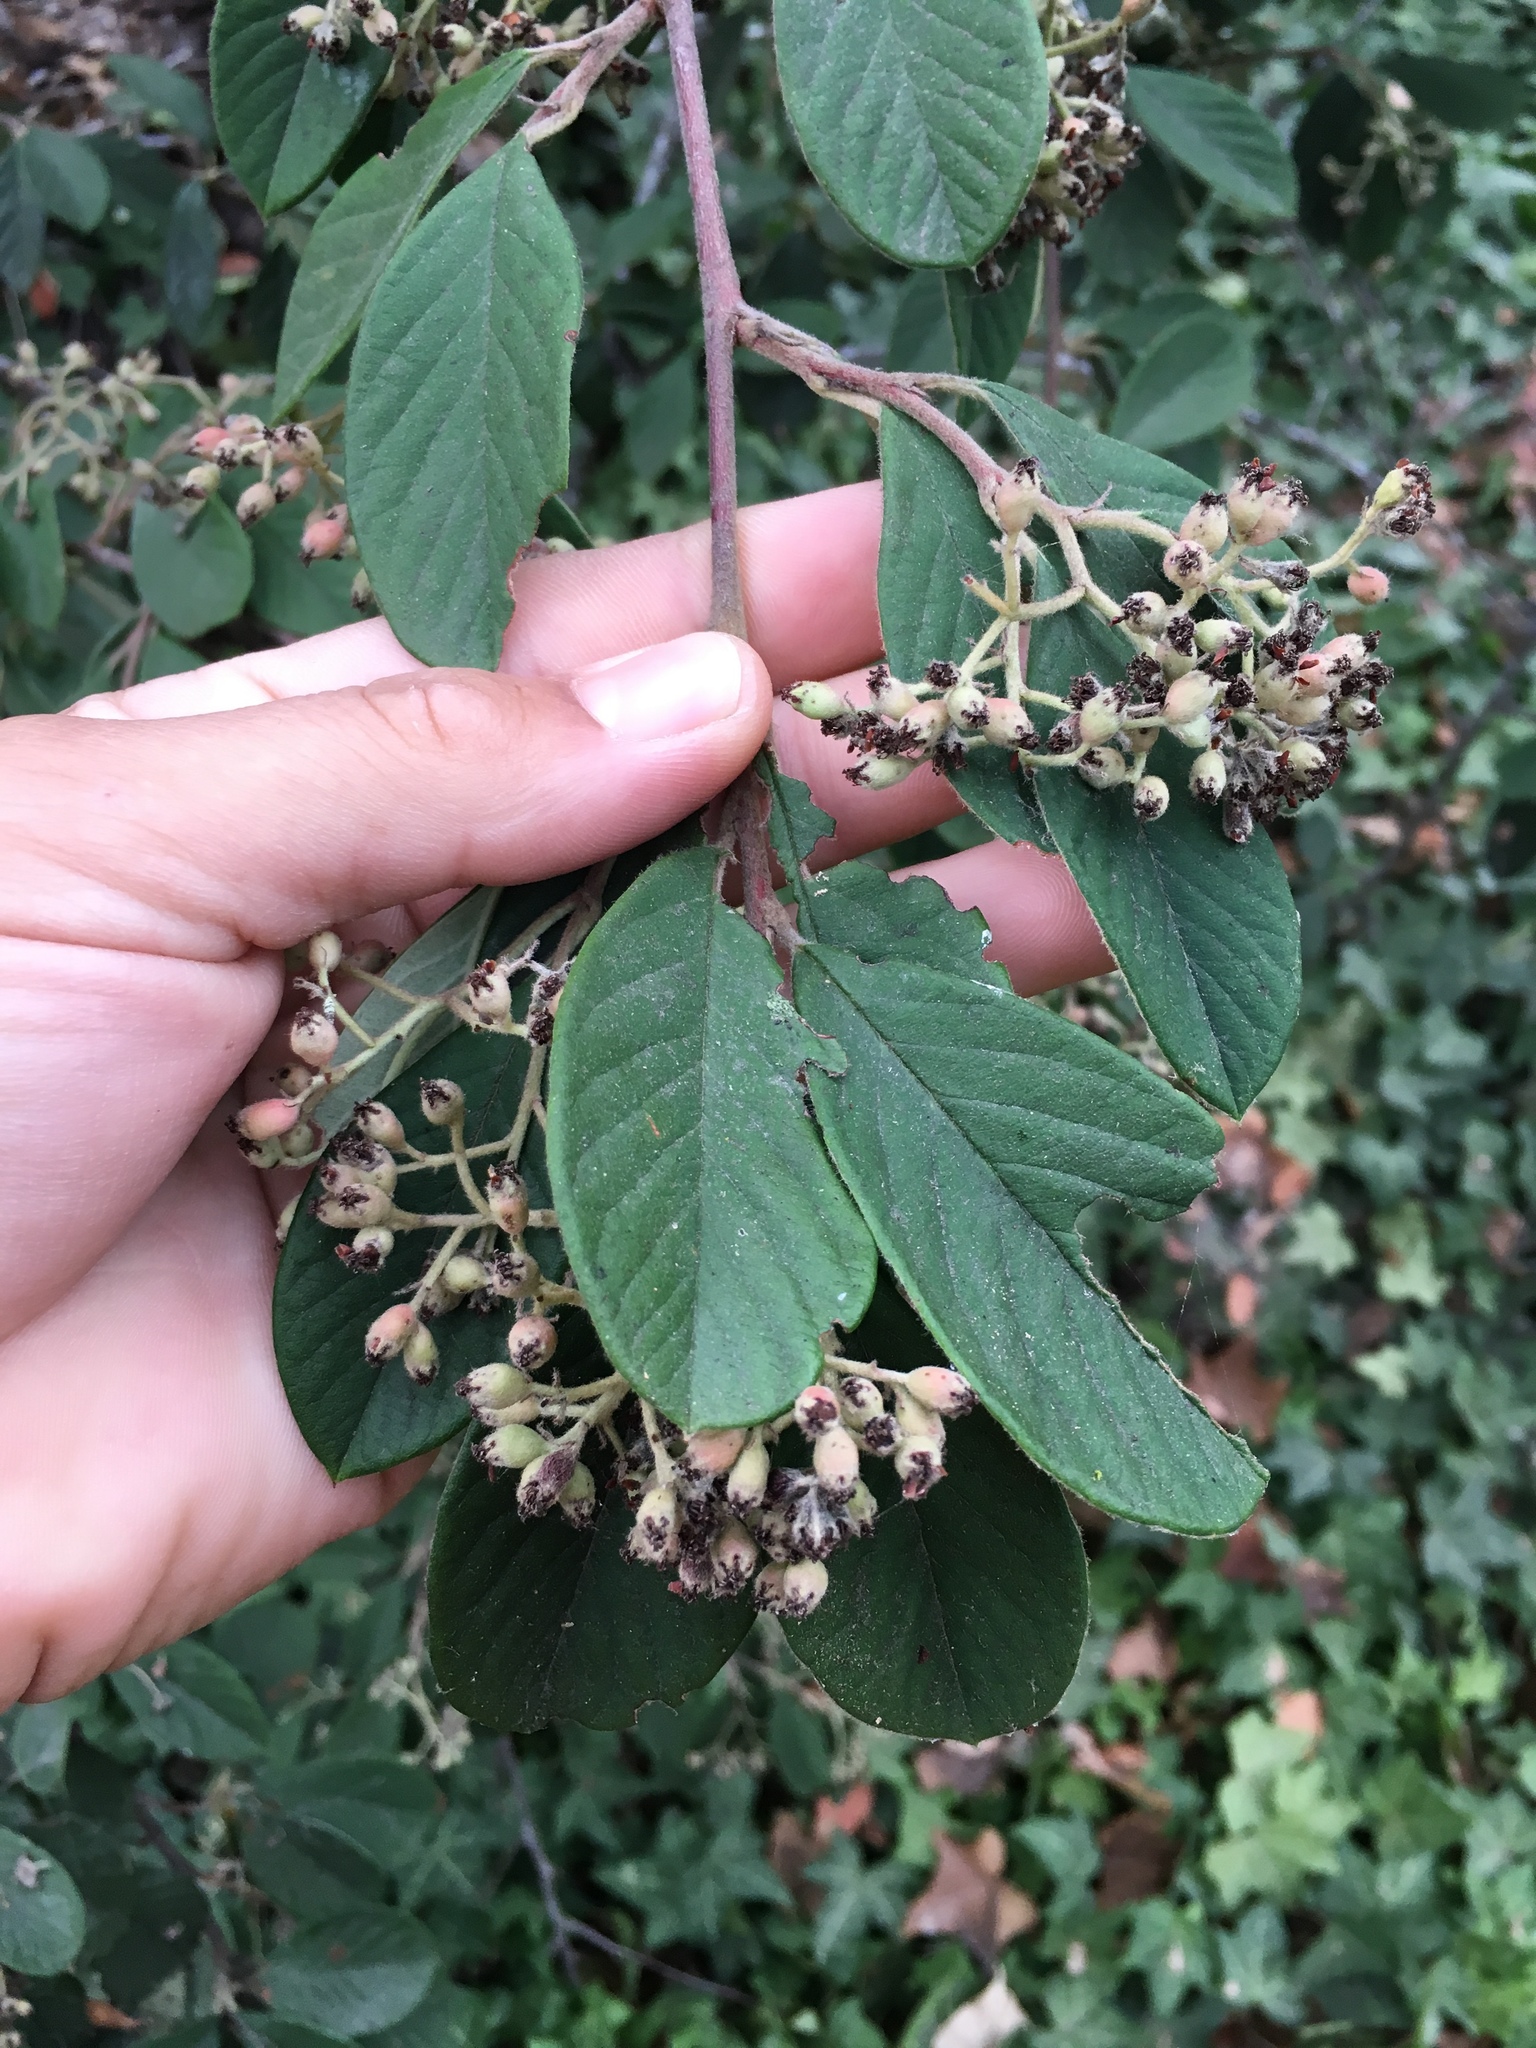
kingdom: Plantae
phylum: Tracheophyta
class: Magnoliopsida
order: Rosales
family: Rosaceae
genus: Cotoneaster
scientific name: Cotoneaster coriaceus
